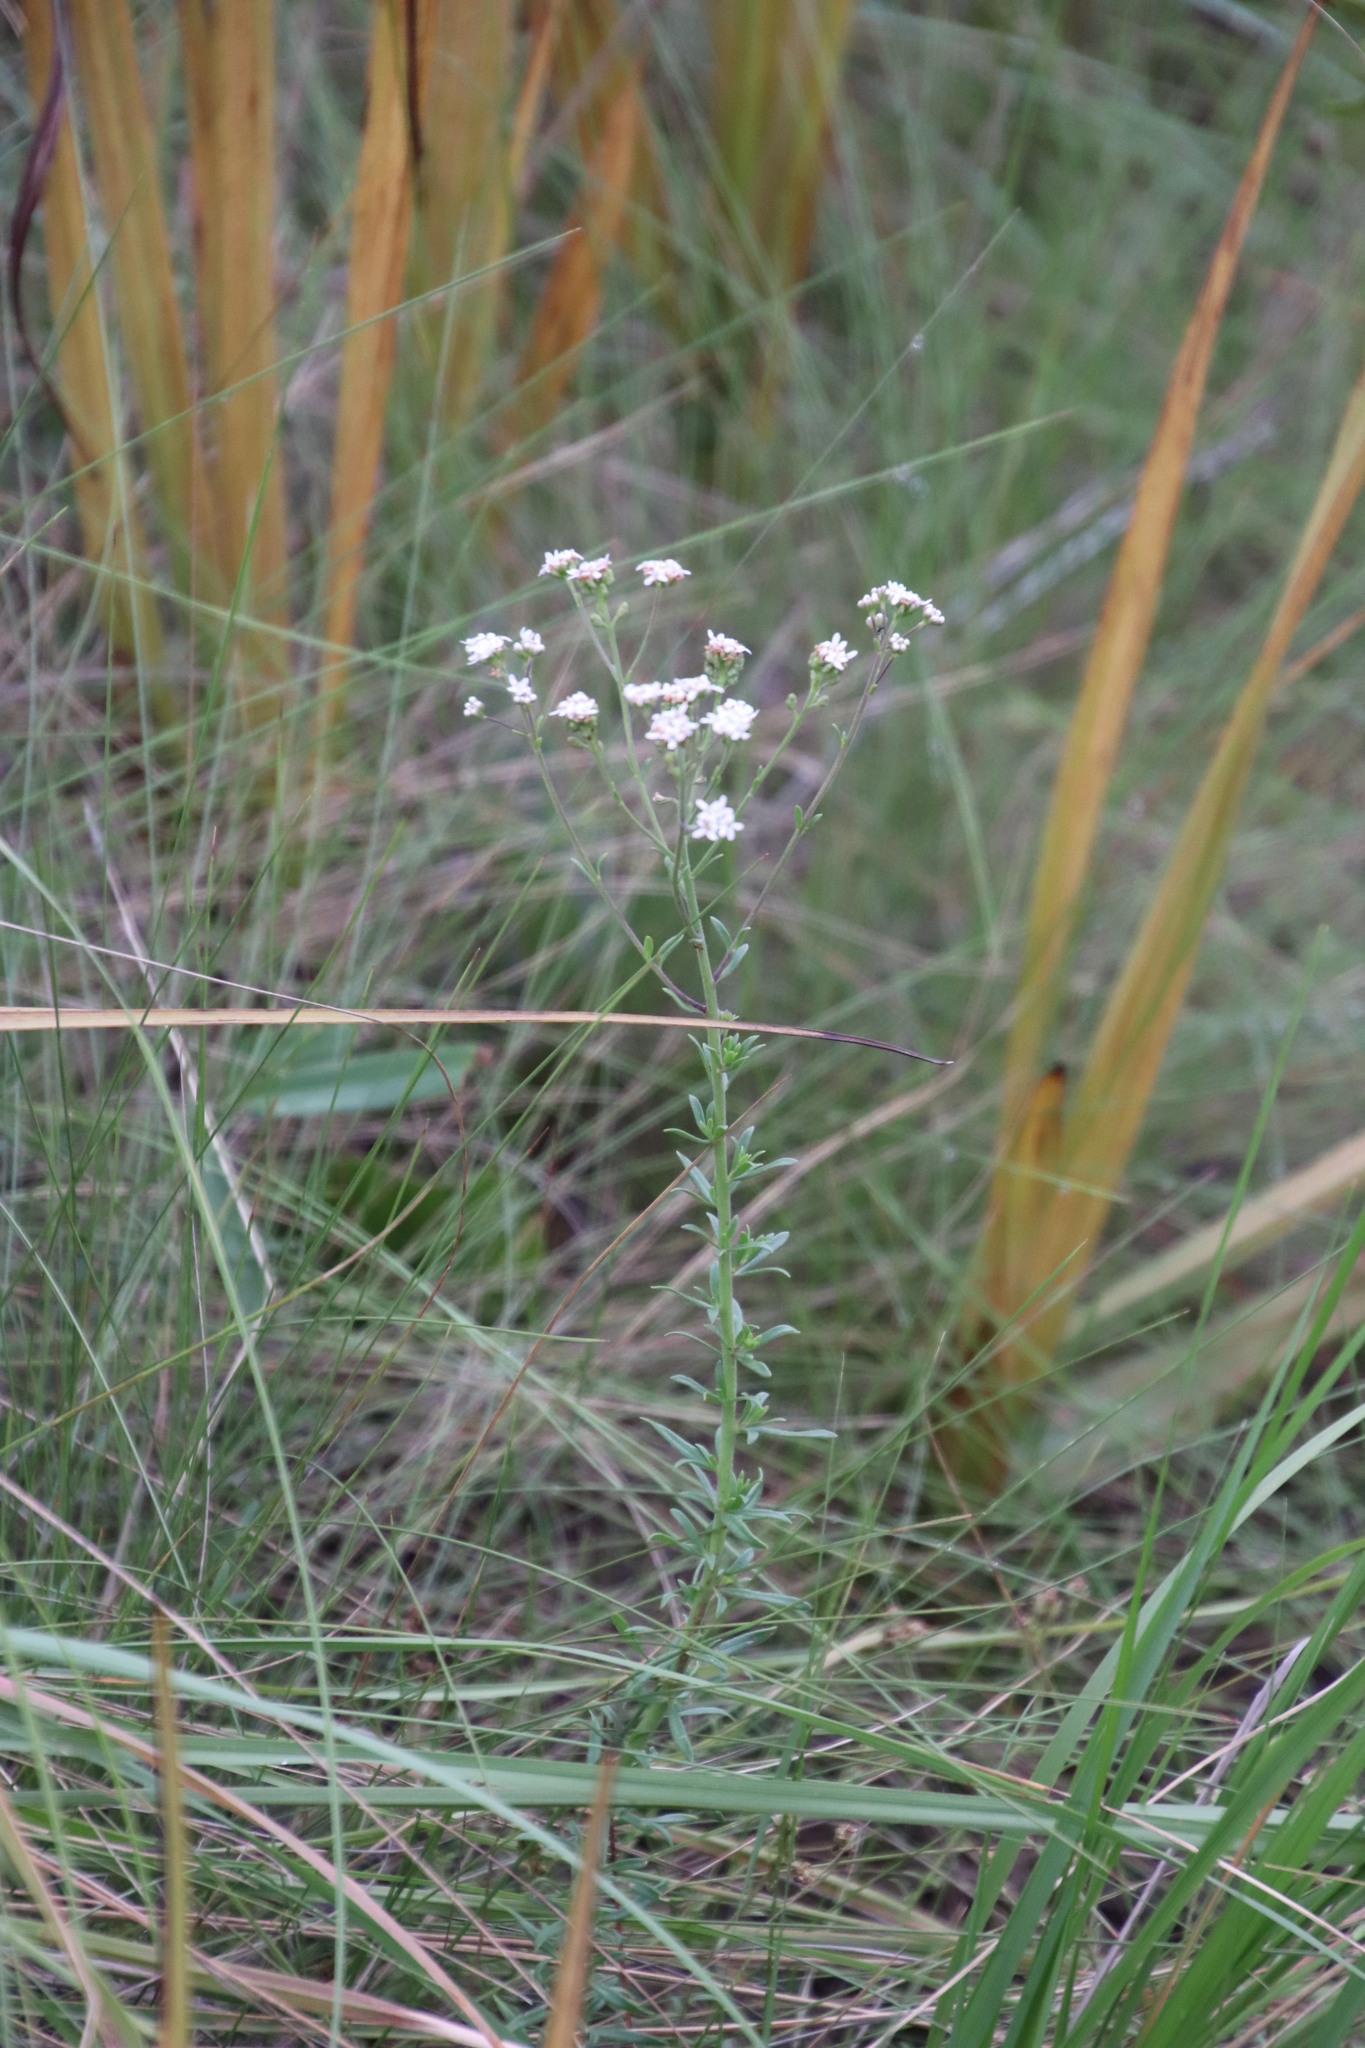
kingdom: Plantae
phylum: Tracheophyta
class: Magnoliopsida
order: Lamiales
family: Scrophulariaceae
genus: Selago
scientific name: Selago monticola
